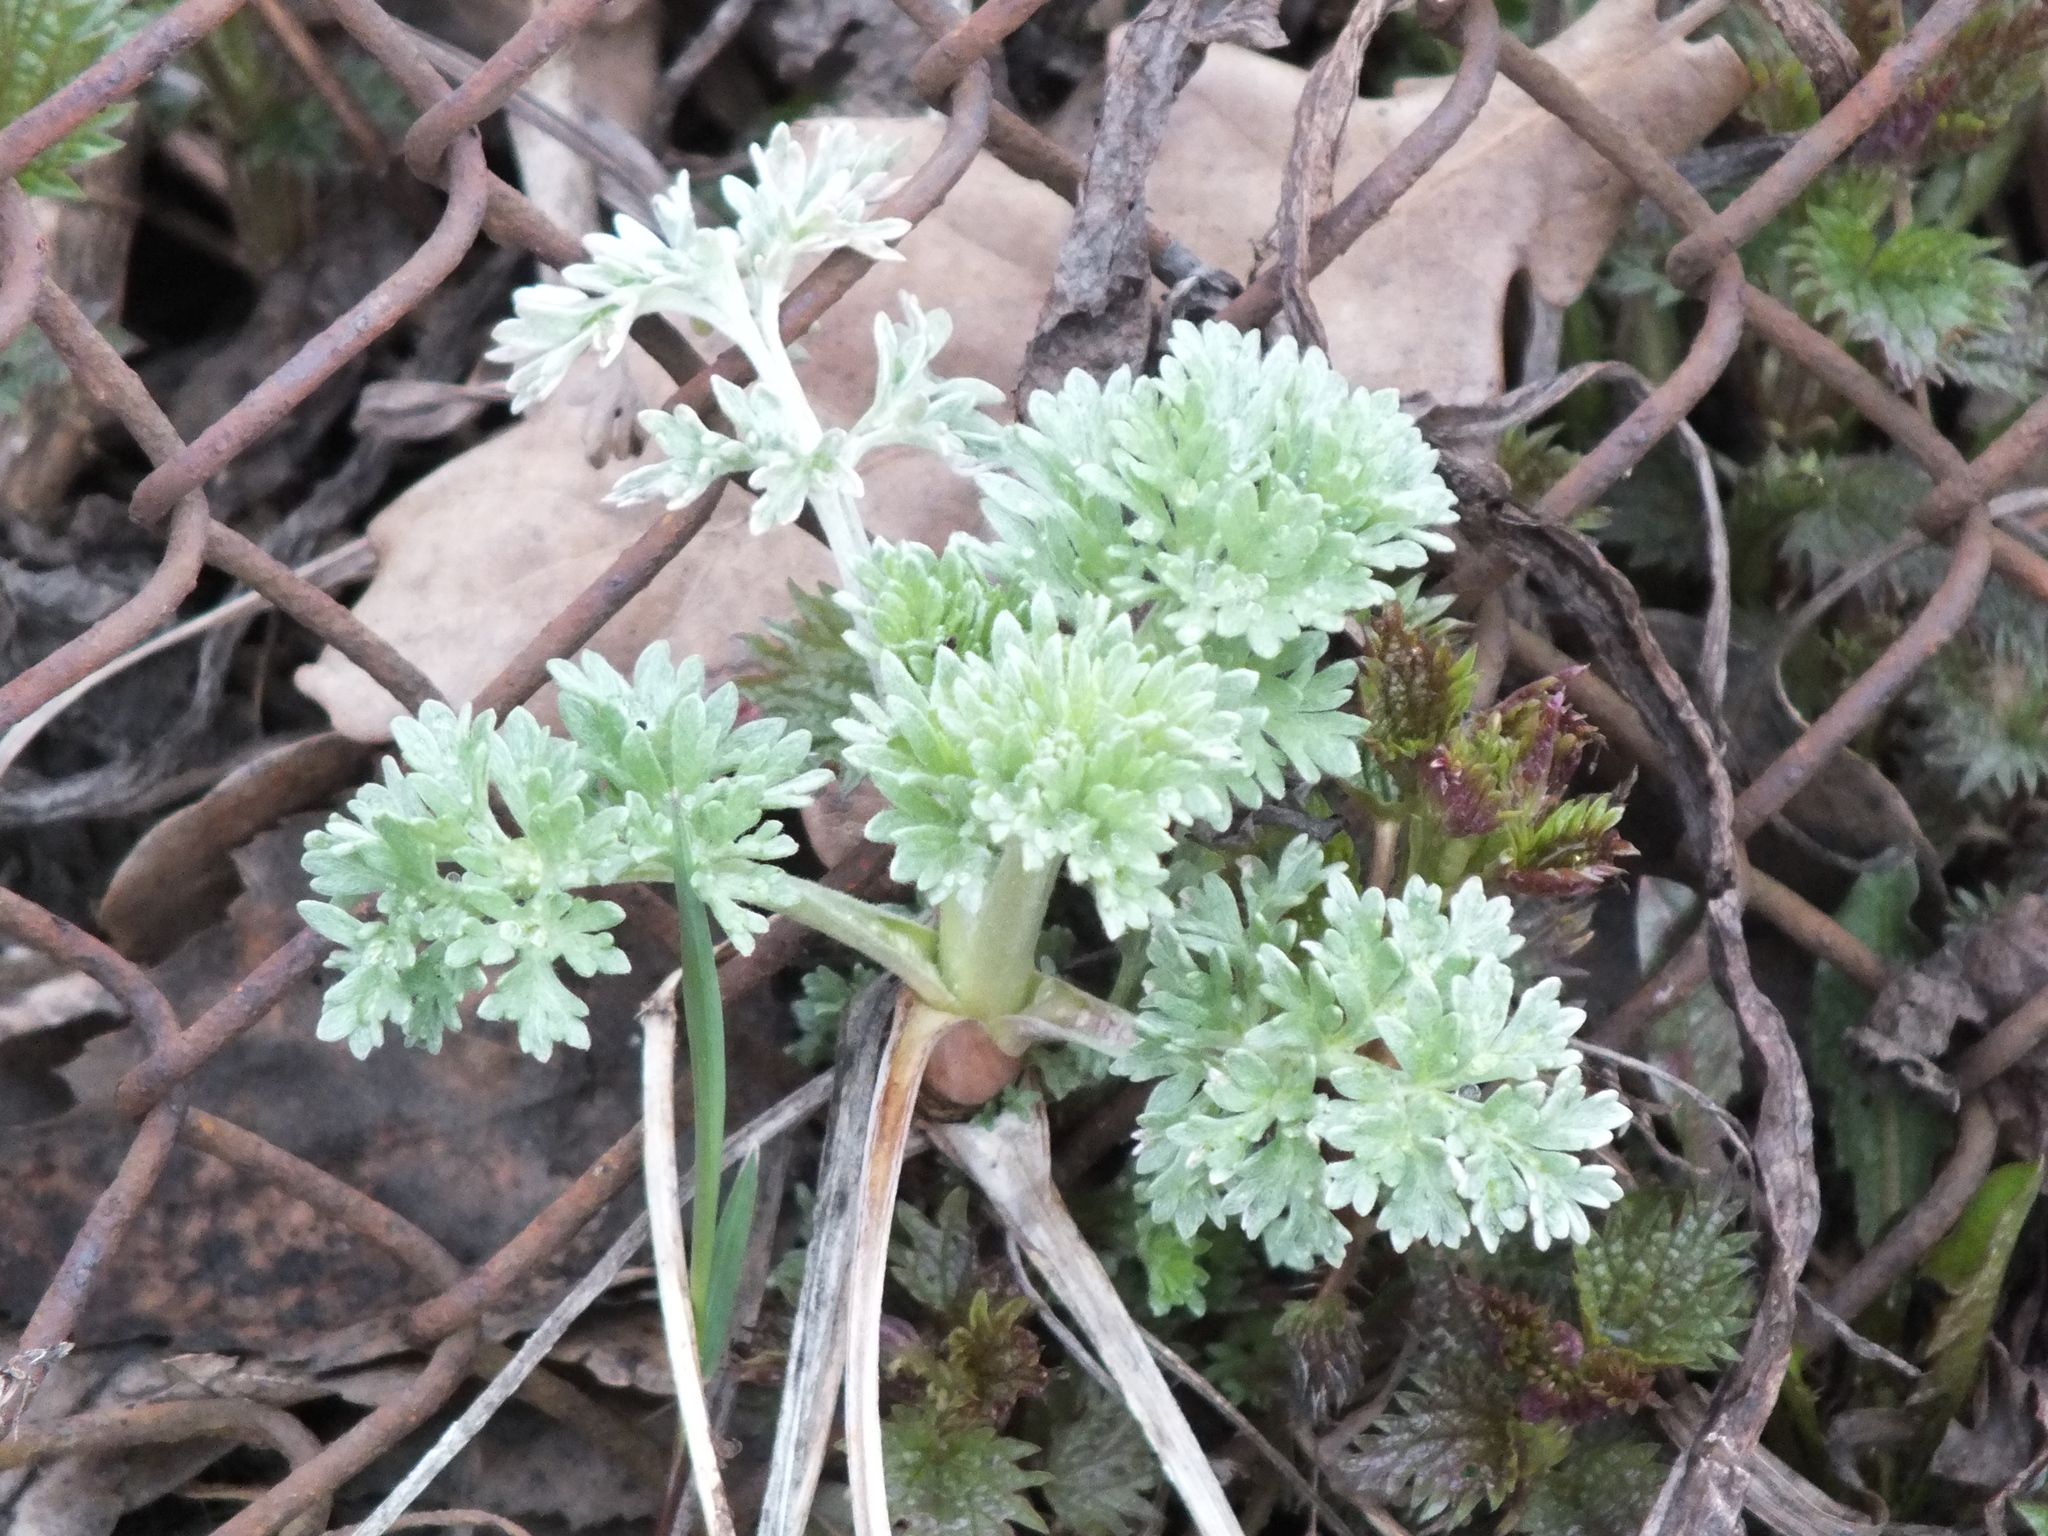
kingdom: Plantae
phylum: Tracheophyta
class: Magnoliopsida
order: Asterales
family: Asteraceae
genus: Artemisia
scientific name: Artemisia absinthium
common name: Wormwood
